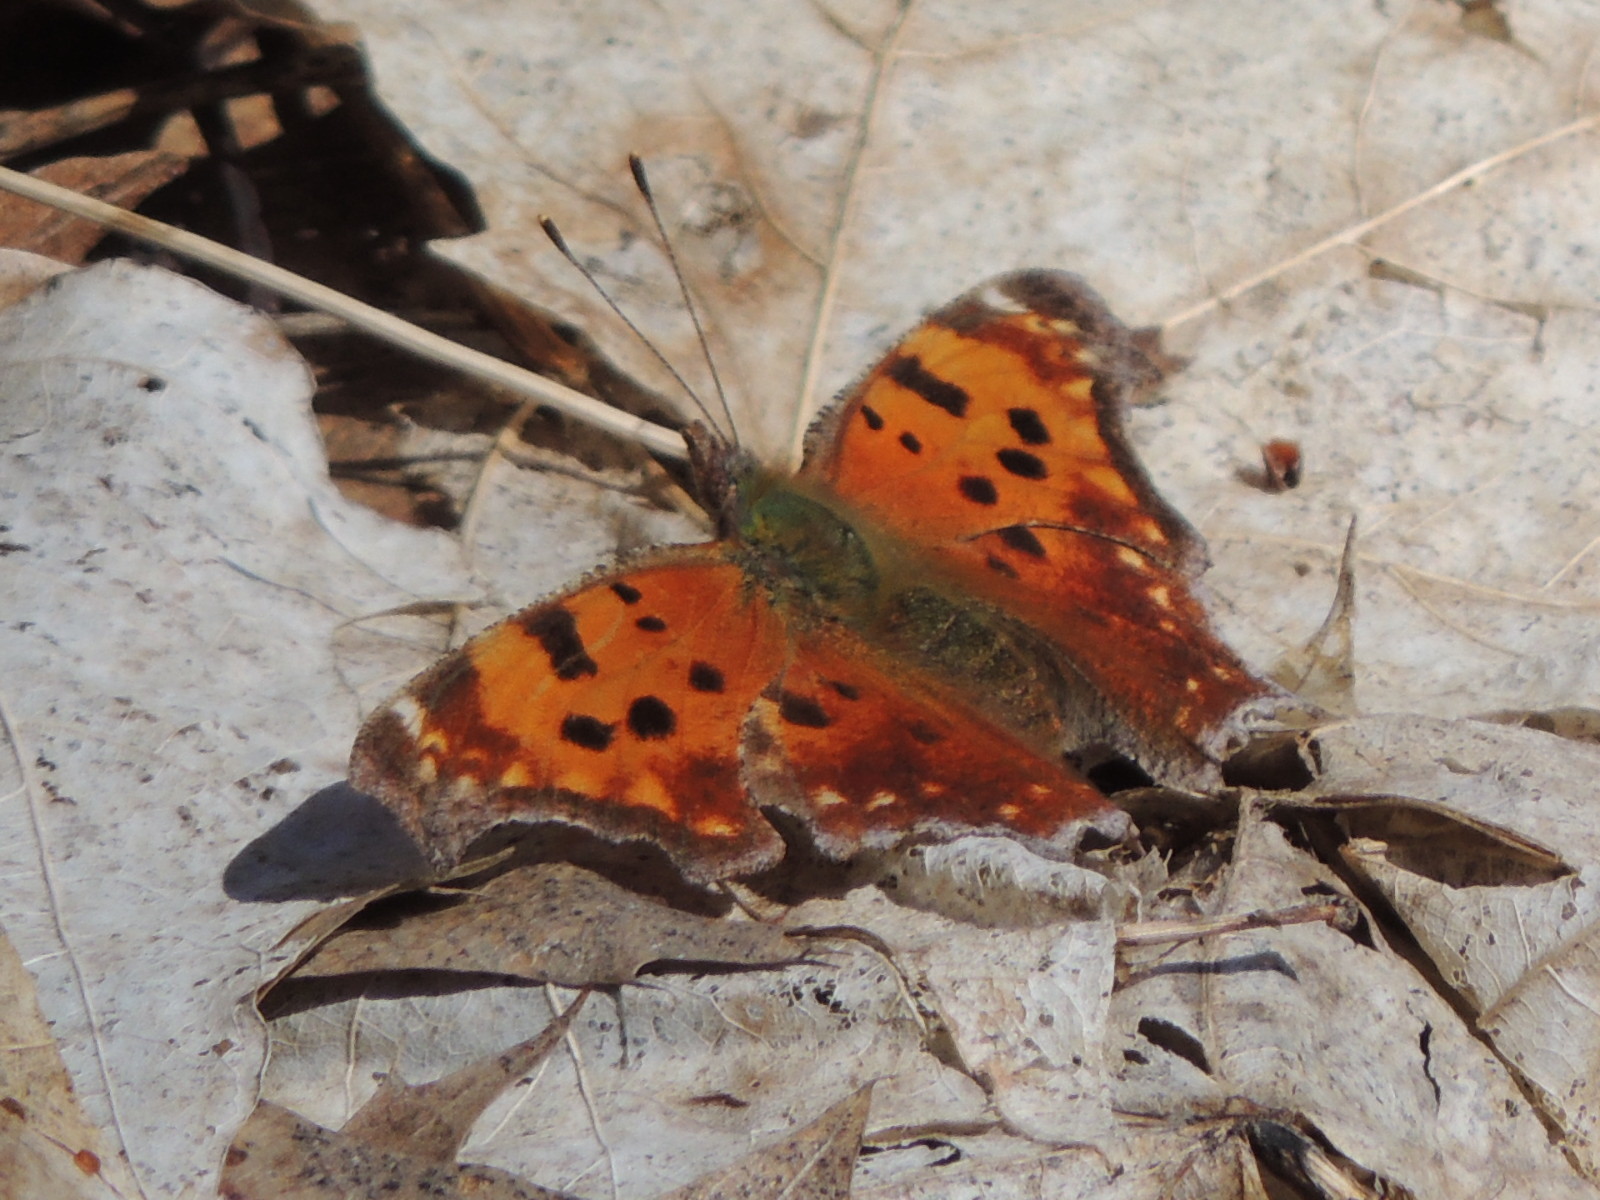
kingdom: Animalia
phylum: Arthropoda
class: Insecta
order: Lepidoptera
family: Nymphalidae
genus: Polygonia
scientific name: Polygonia comma
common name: Eastern comma
